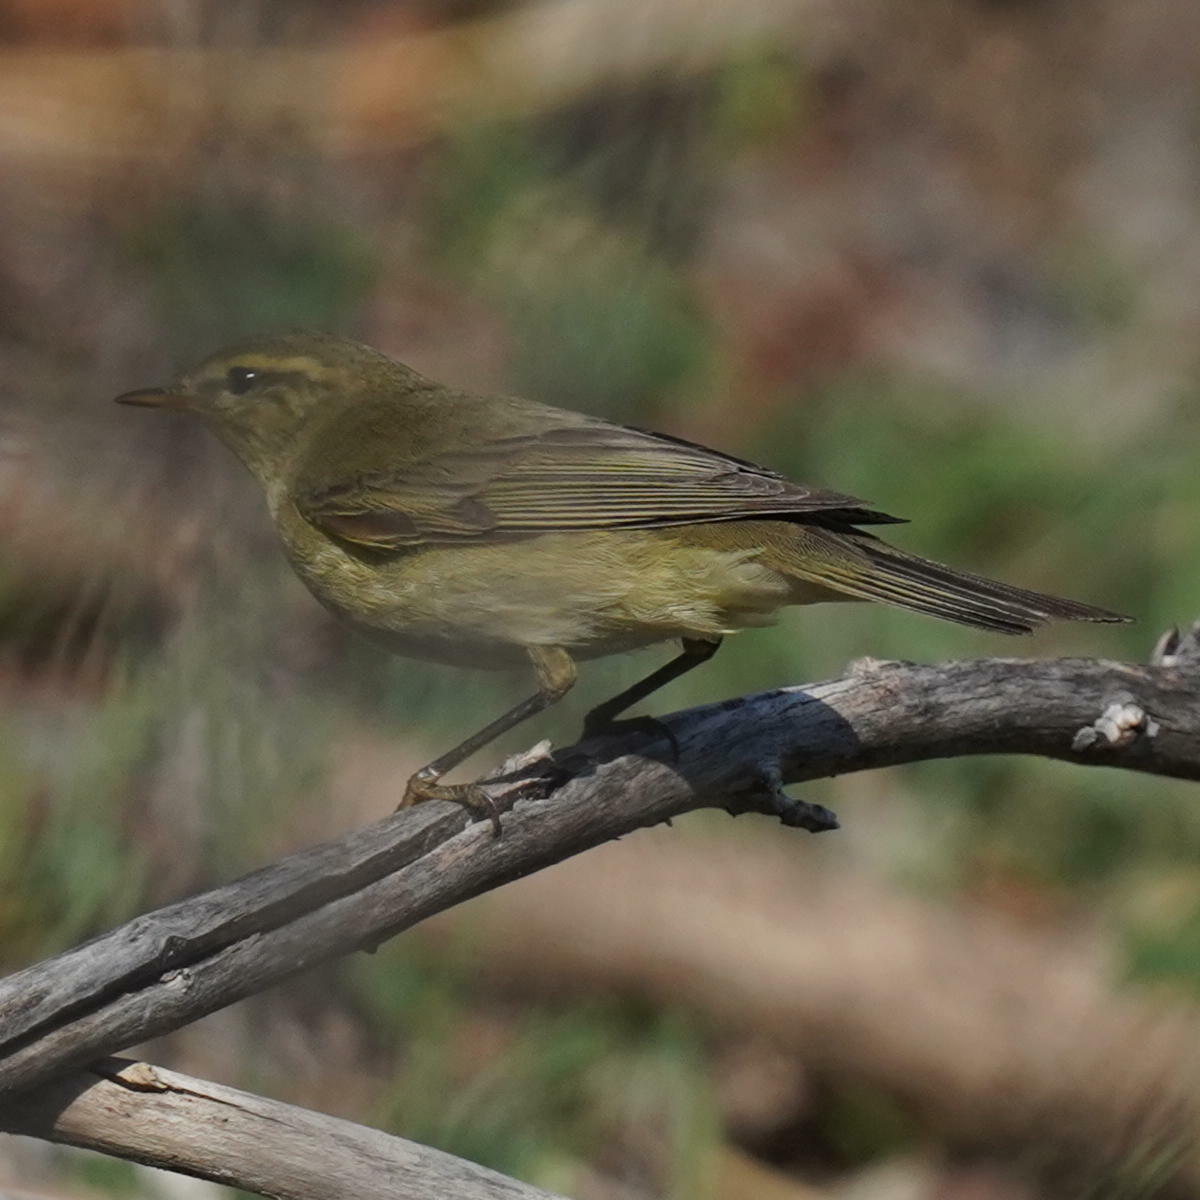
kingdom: Animalia
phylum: Chordata
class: Aves
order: Passeriformes
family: Phylloscopidae
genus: Phylloscopus
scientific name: Phylloscopus trochilus
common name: Willow warbler
